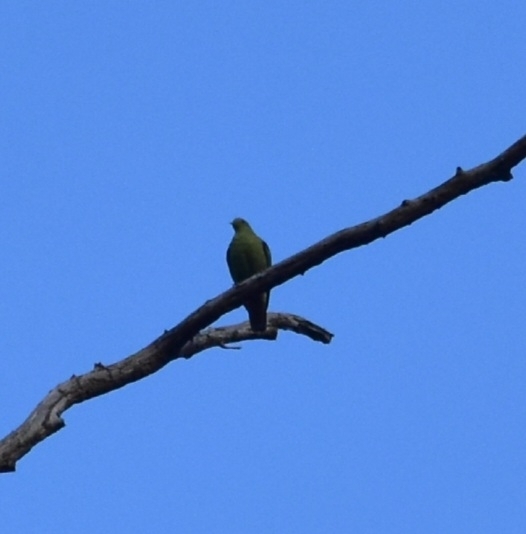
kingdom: Animalia
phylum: Chordata
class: Aves
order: Columbiformes
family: Columbidae
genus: Treron
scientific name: Treron affinis
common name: Grey-fronted green pigeon
